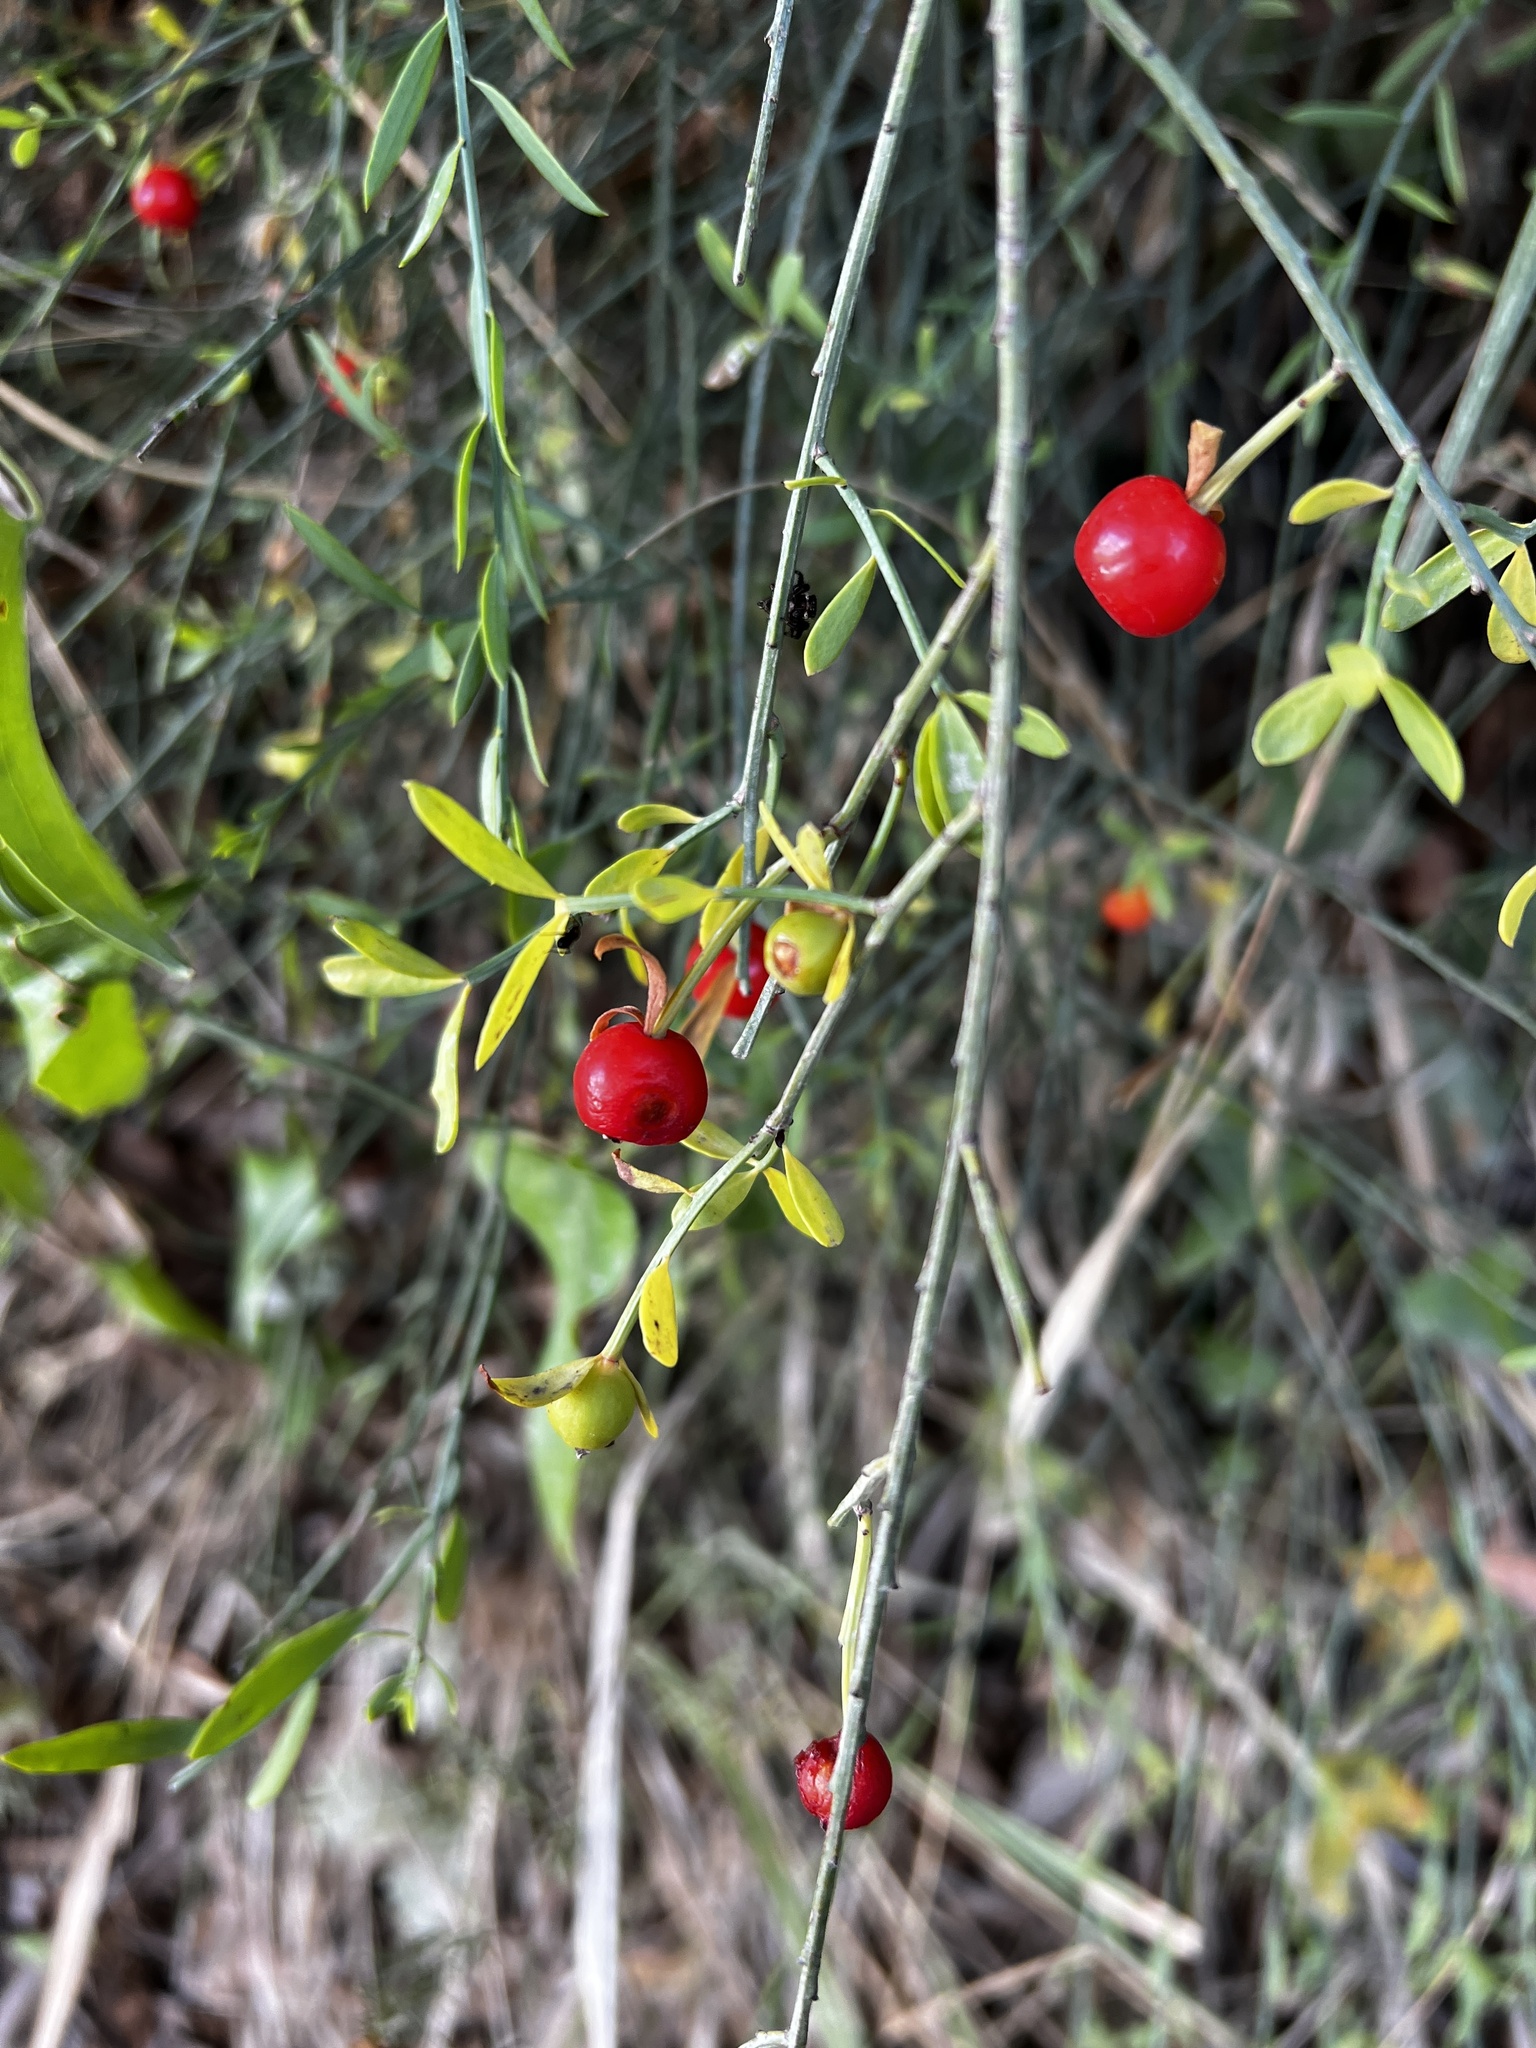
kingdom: Plantae
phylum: Tracheophyta
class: Magnoliopsida
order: Santalales
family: Santalaceae
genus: Osyris
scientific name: Osyris alba
